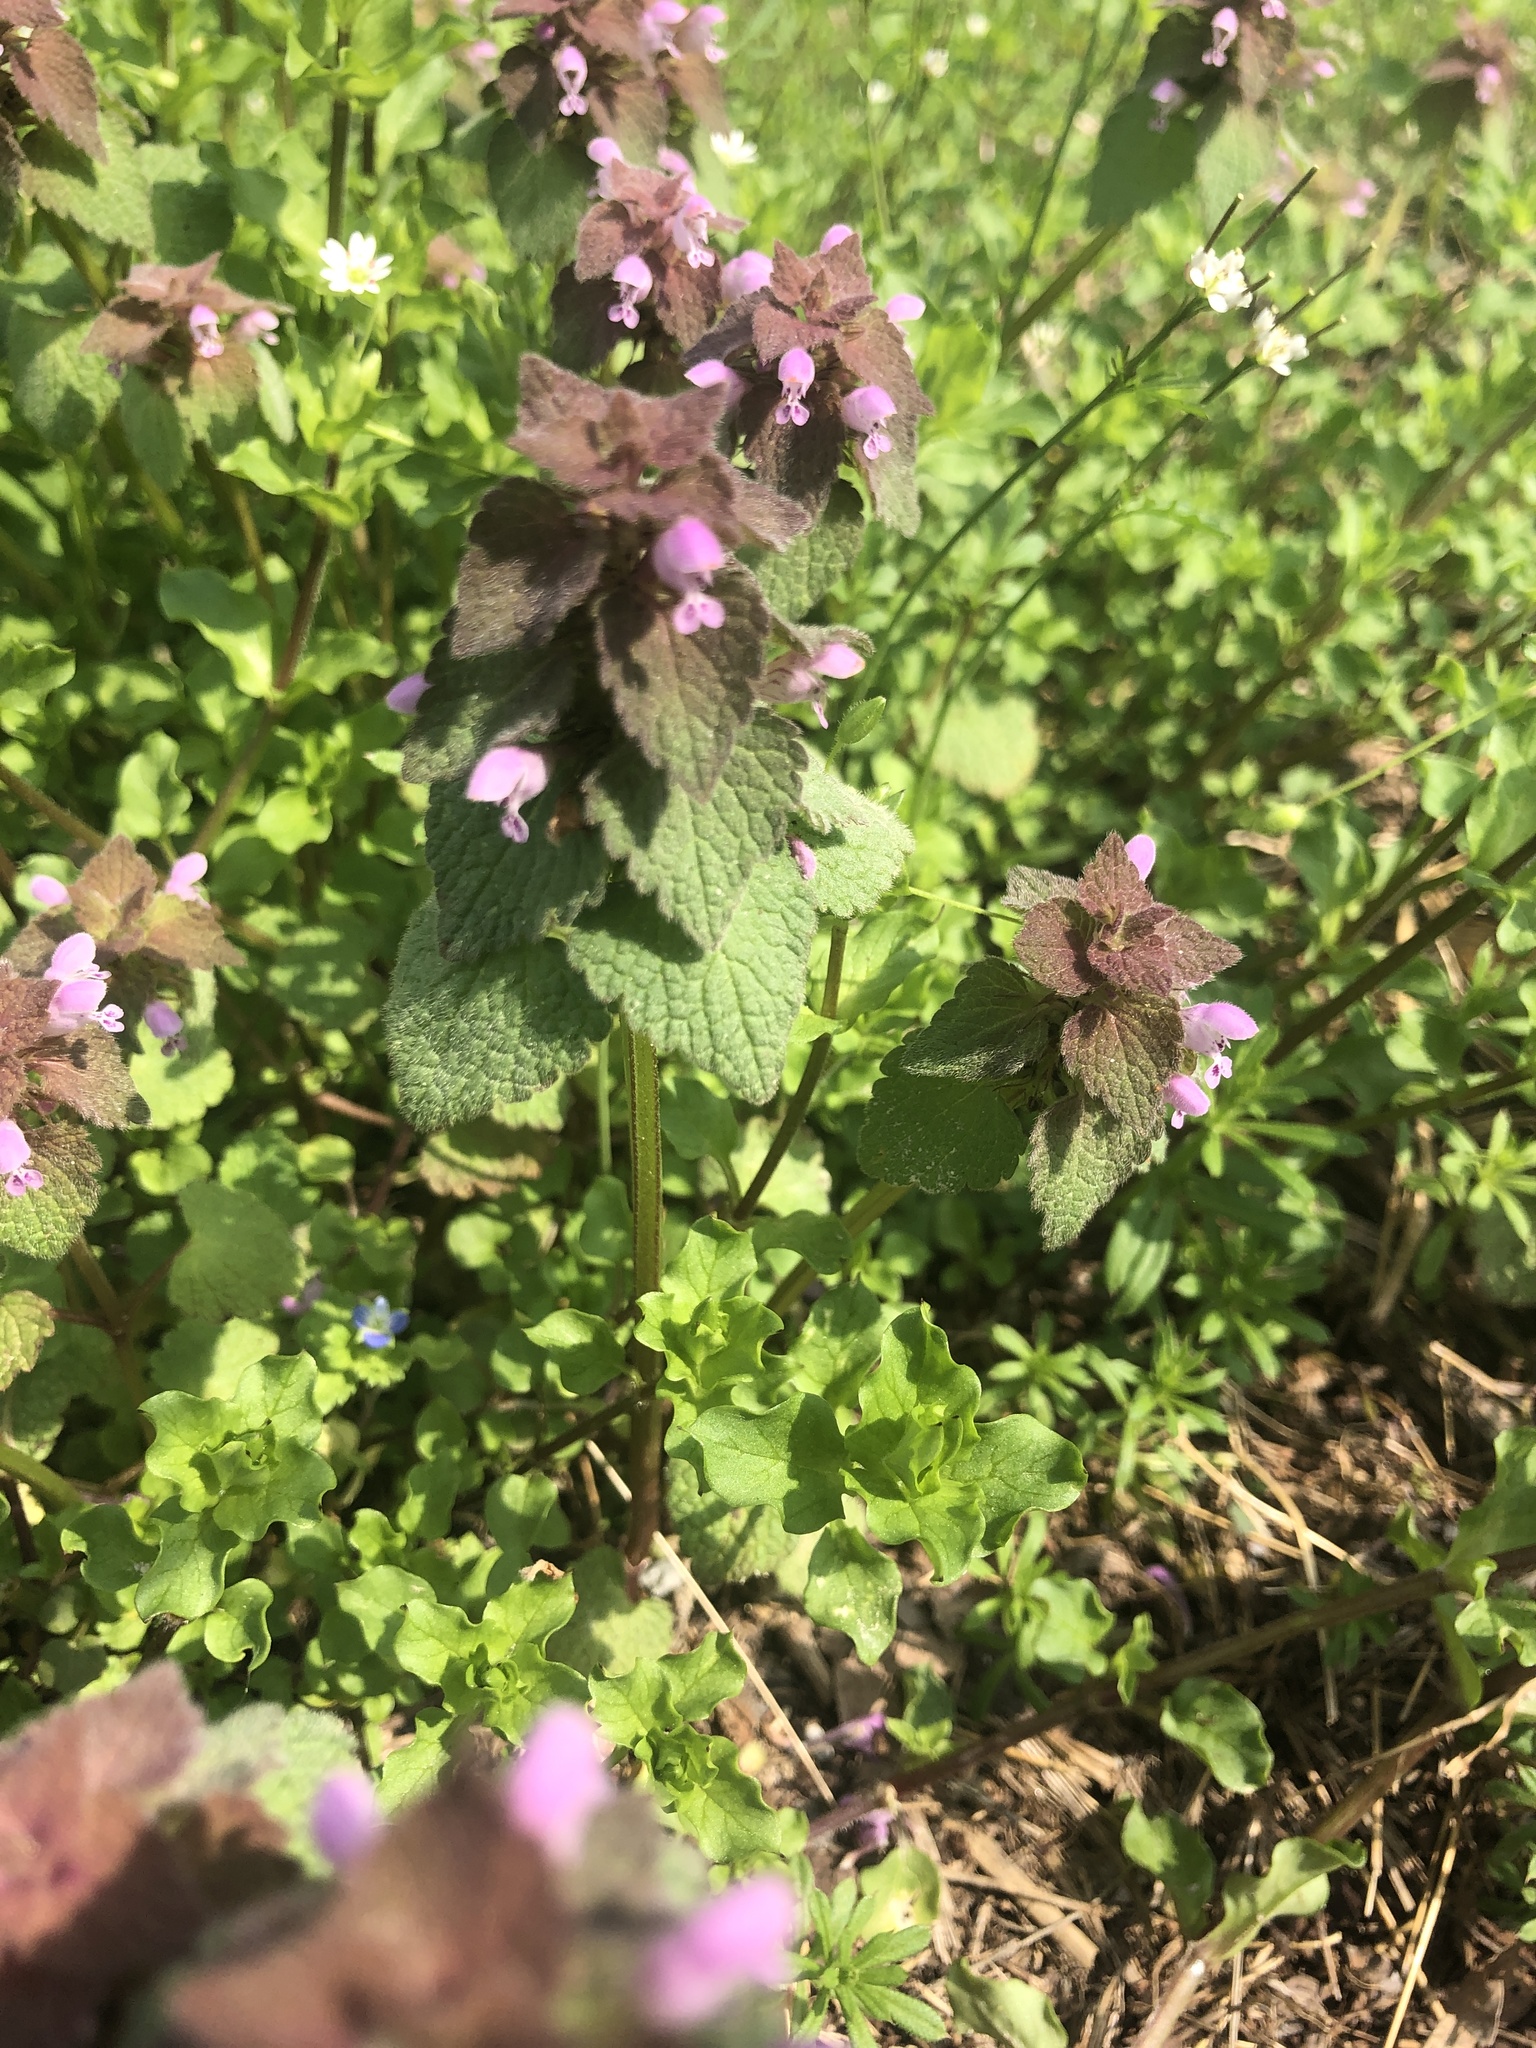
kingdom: Plantae
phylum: Tracheophyta
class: Magnoliopsida
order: Lamiales
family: Lamiaceae
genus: Lamium
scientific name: Lamium purpureum
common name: Red dead-nettle
